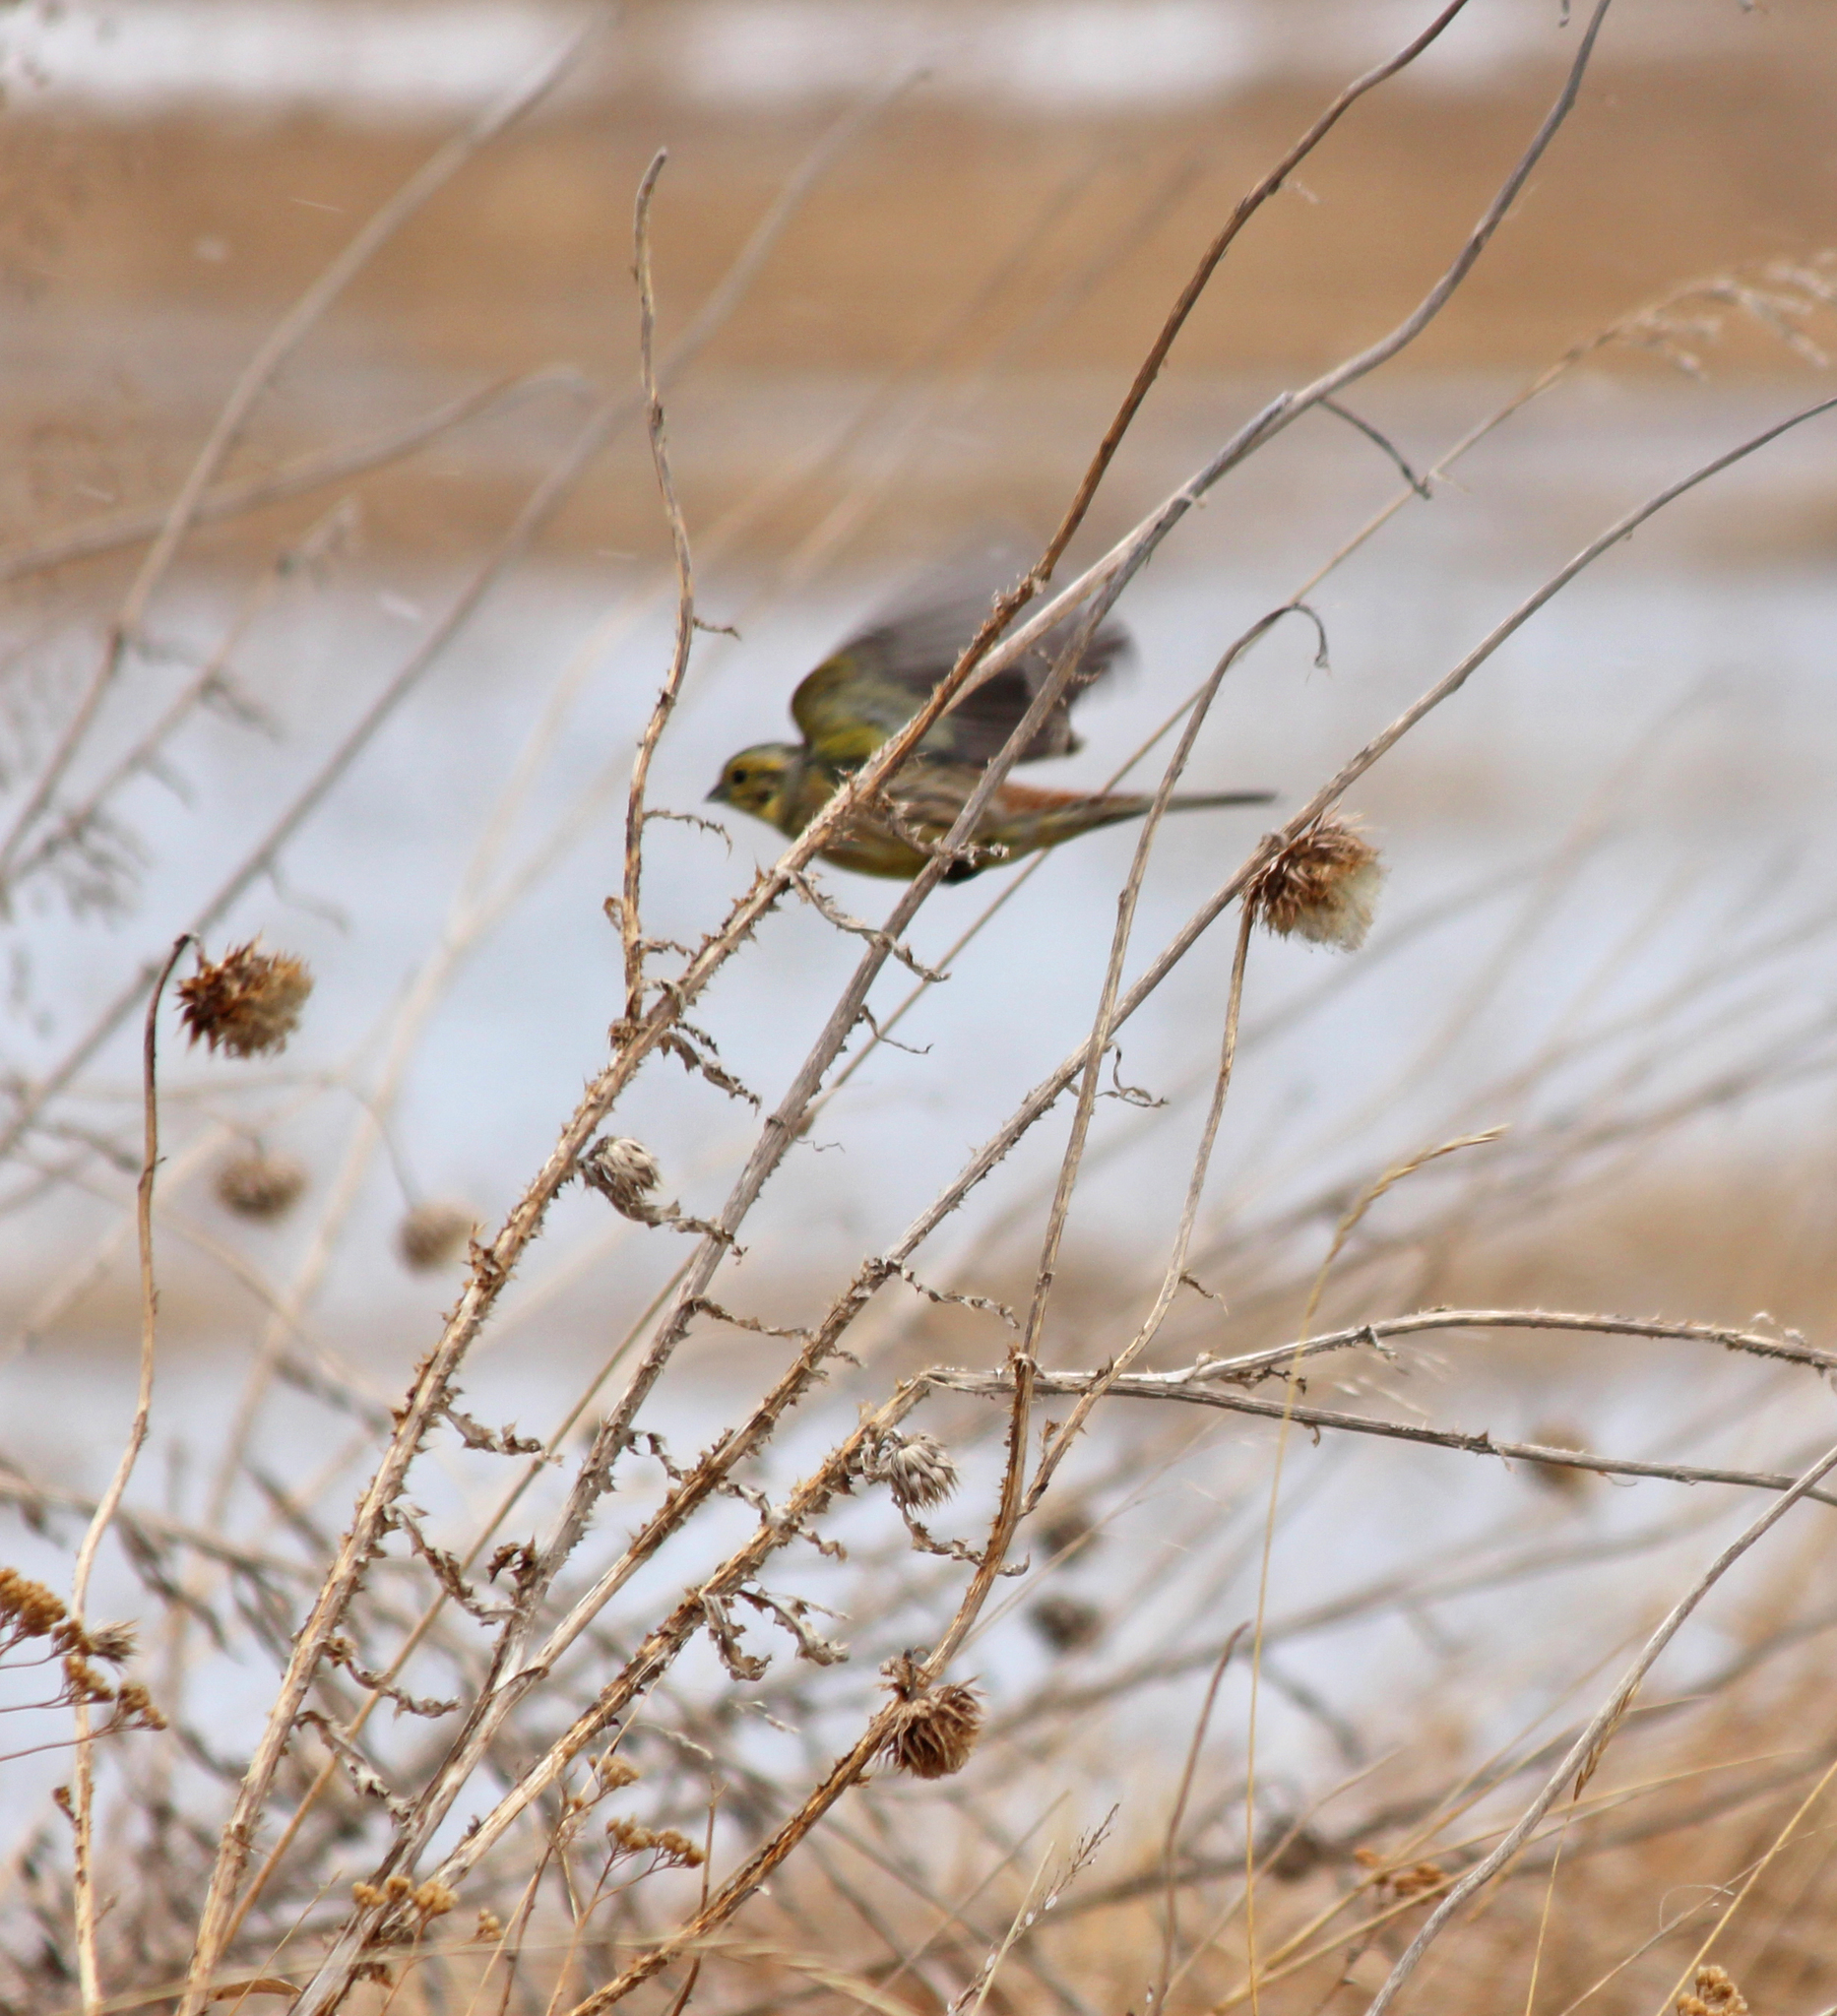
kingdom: Animalia
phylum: Chordata
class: Aves
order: Passeriformes
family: Emberizidae
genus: Emberiza
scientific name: Emberiza citrinella
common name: Yellowhammer
